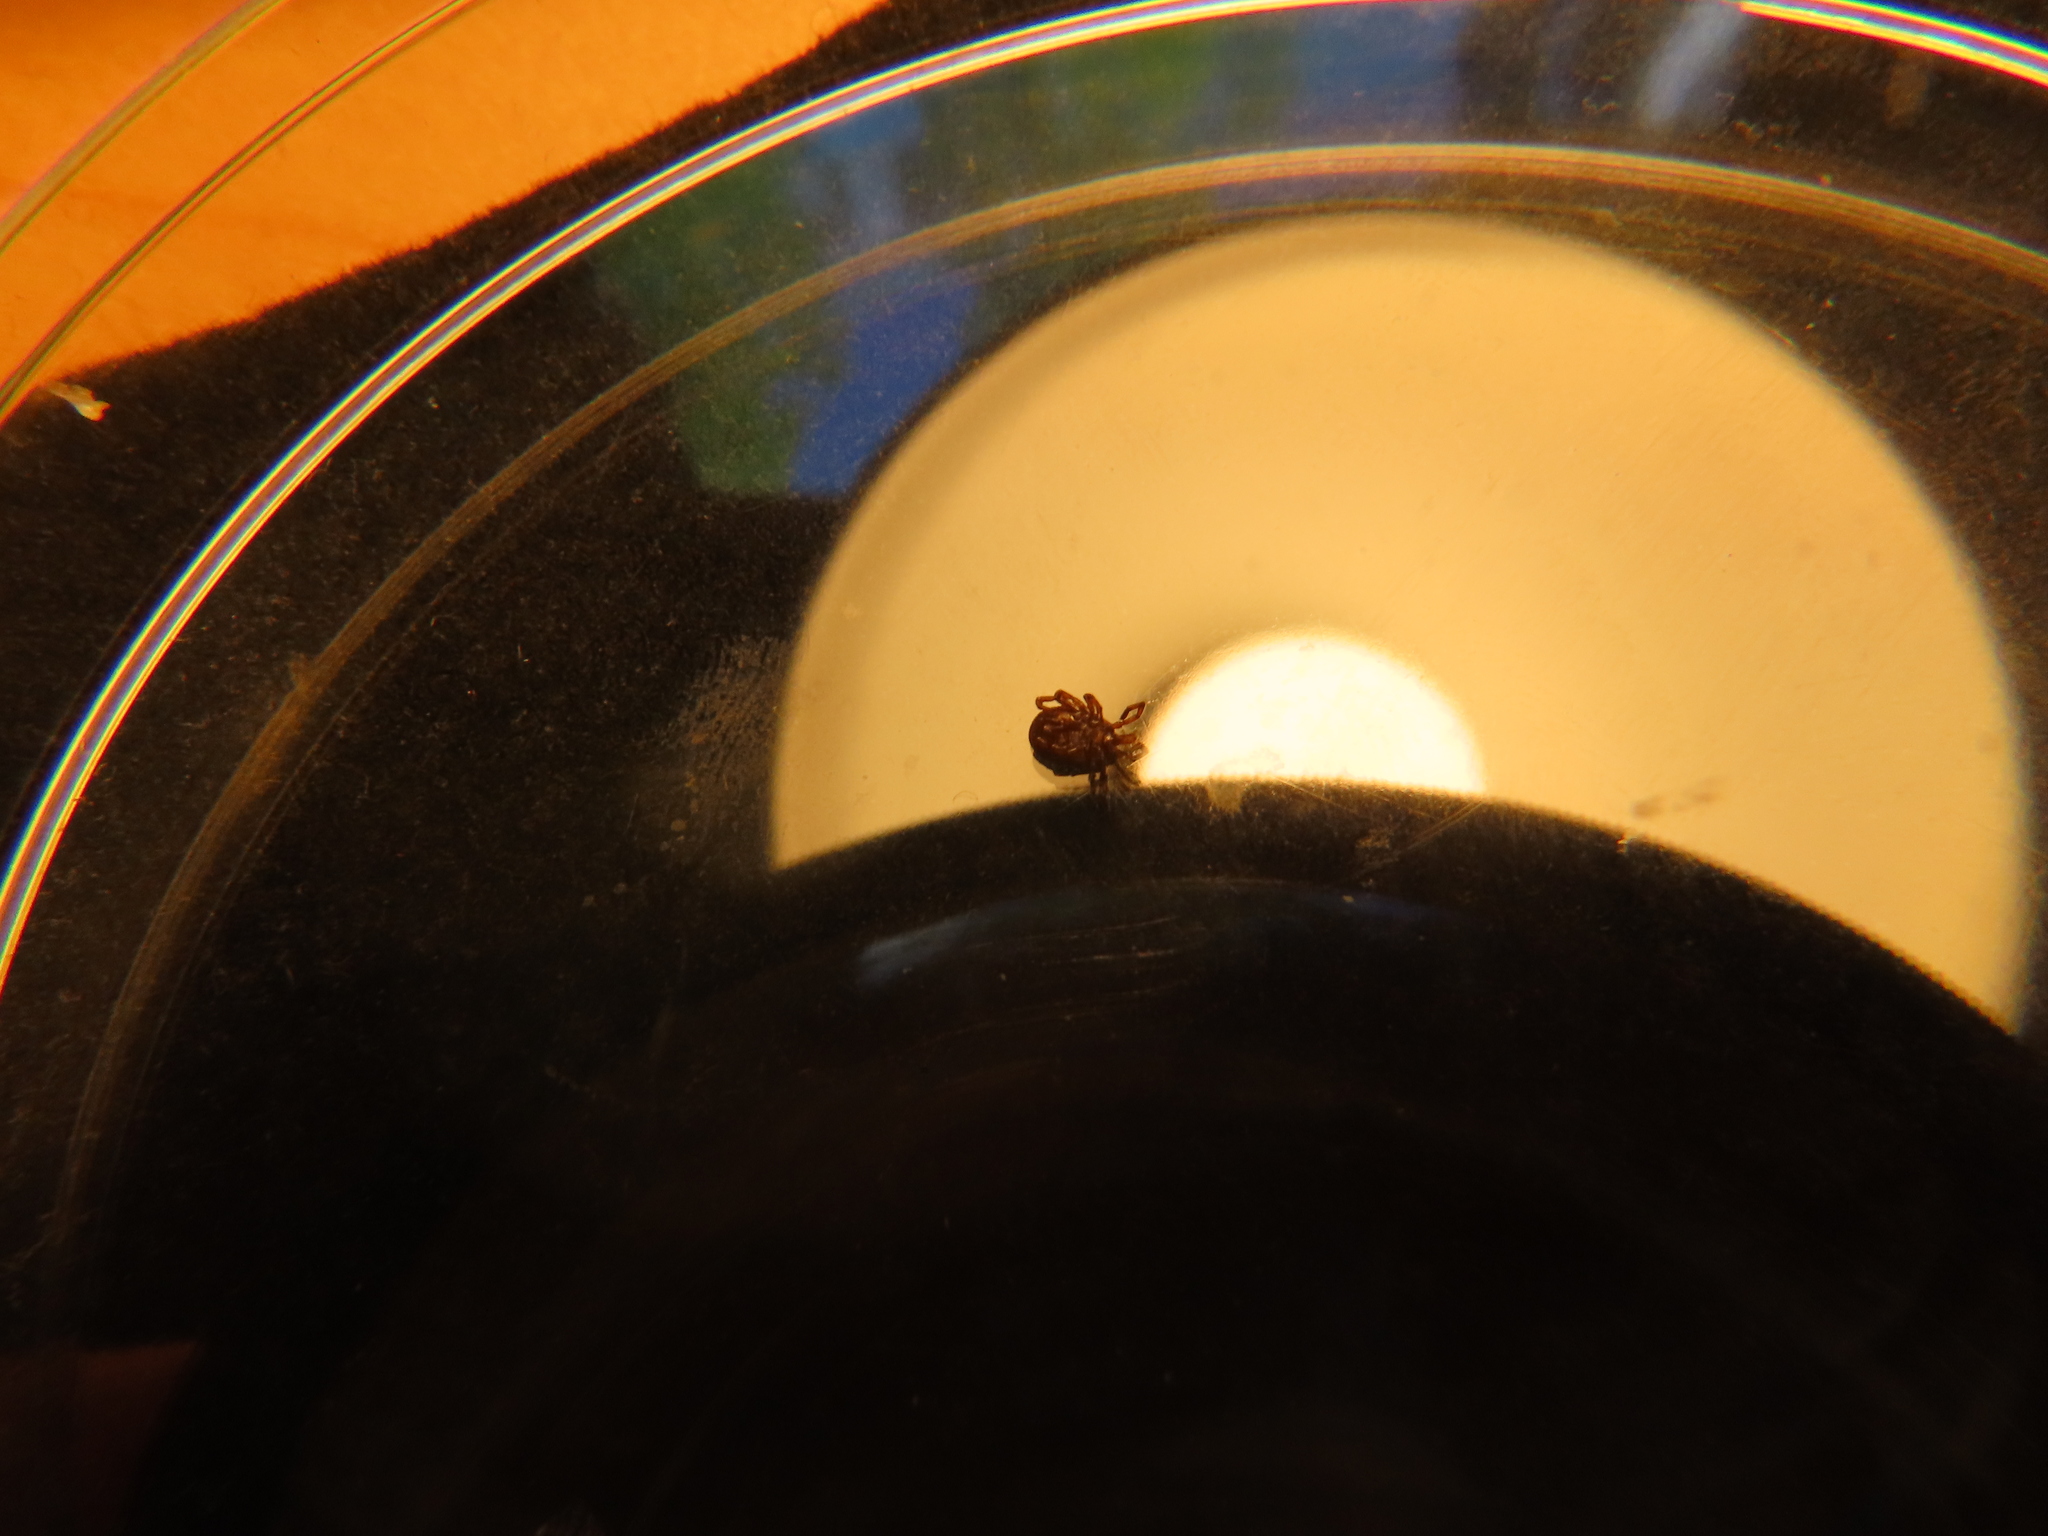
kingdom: Animalia
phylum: Arthropoda
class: Arachnida
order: Ixodida
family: Ixodidae
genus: Amblyomma
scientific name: Amblyomma americanum
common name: Lone star tick
